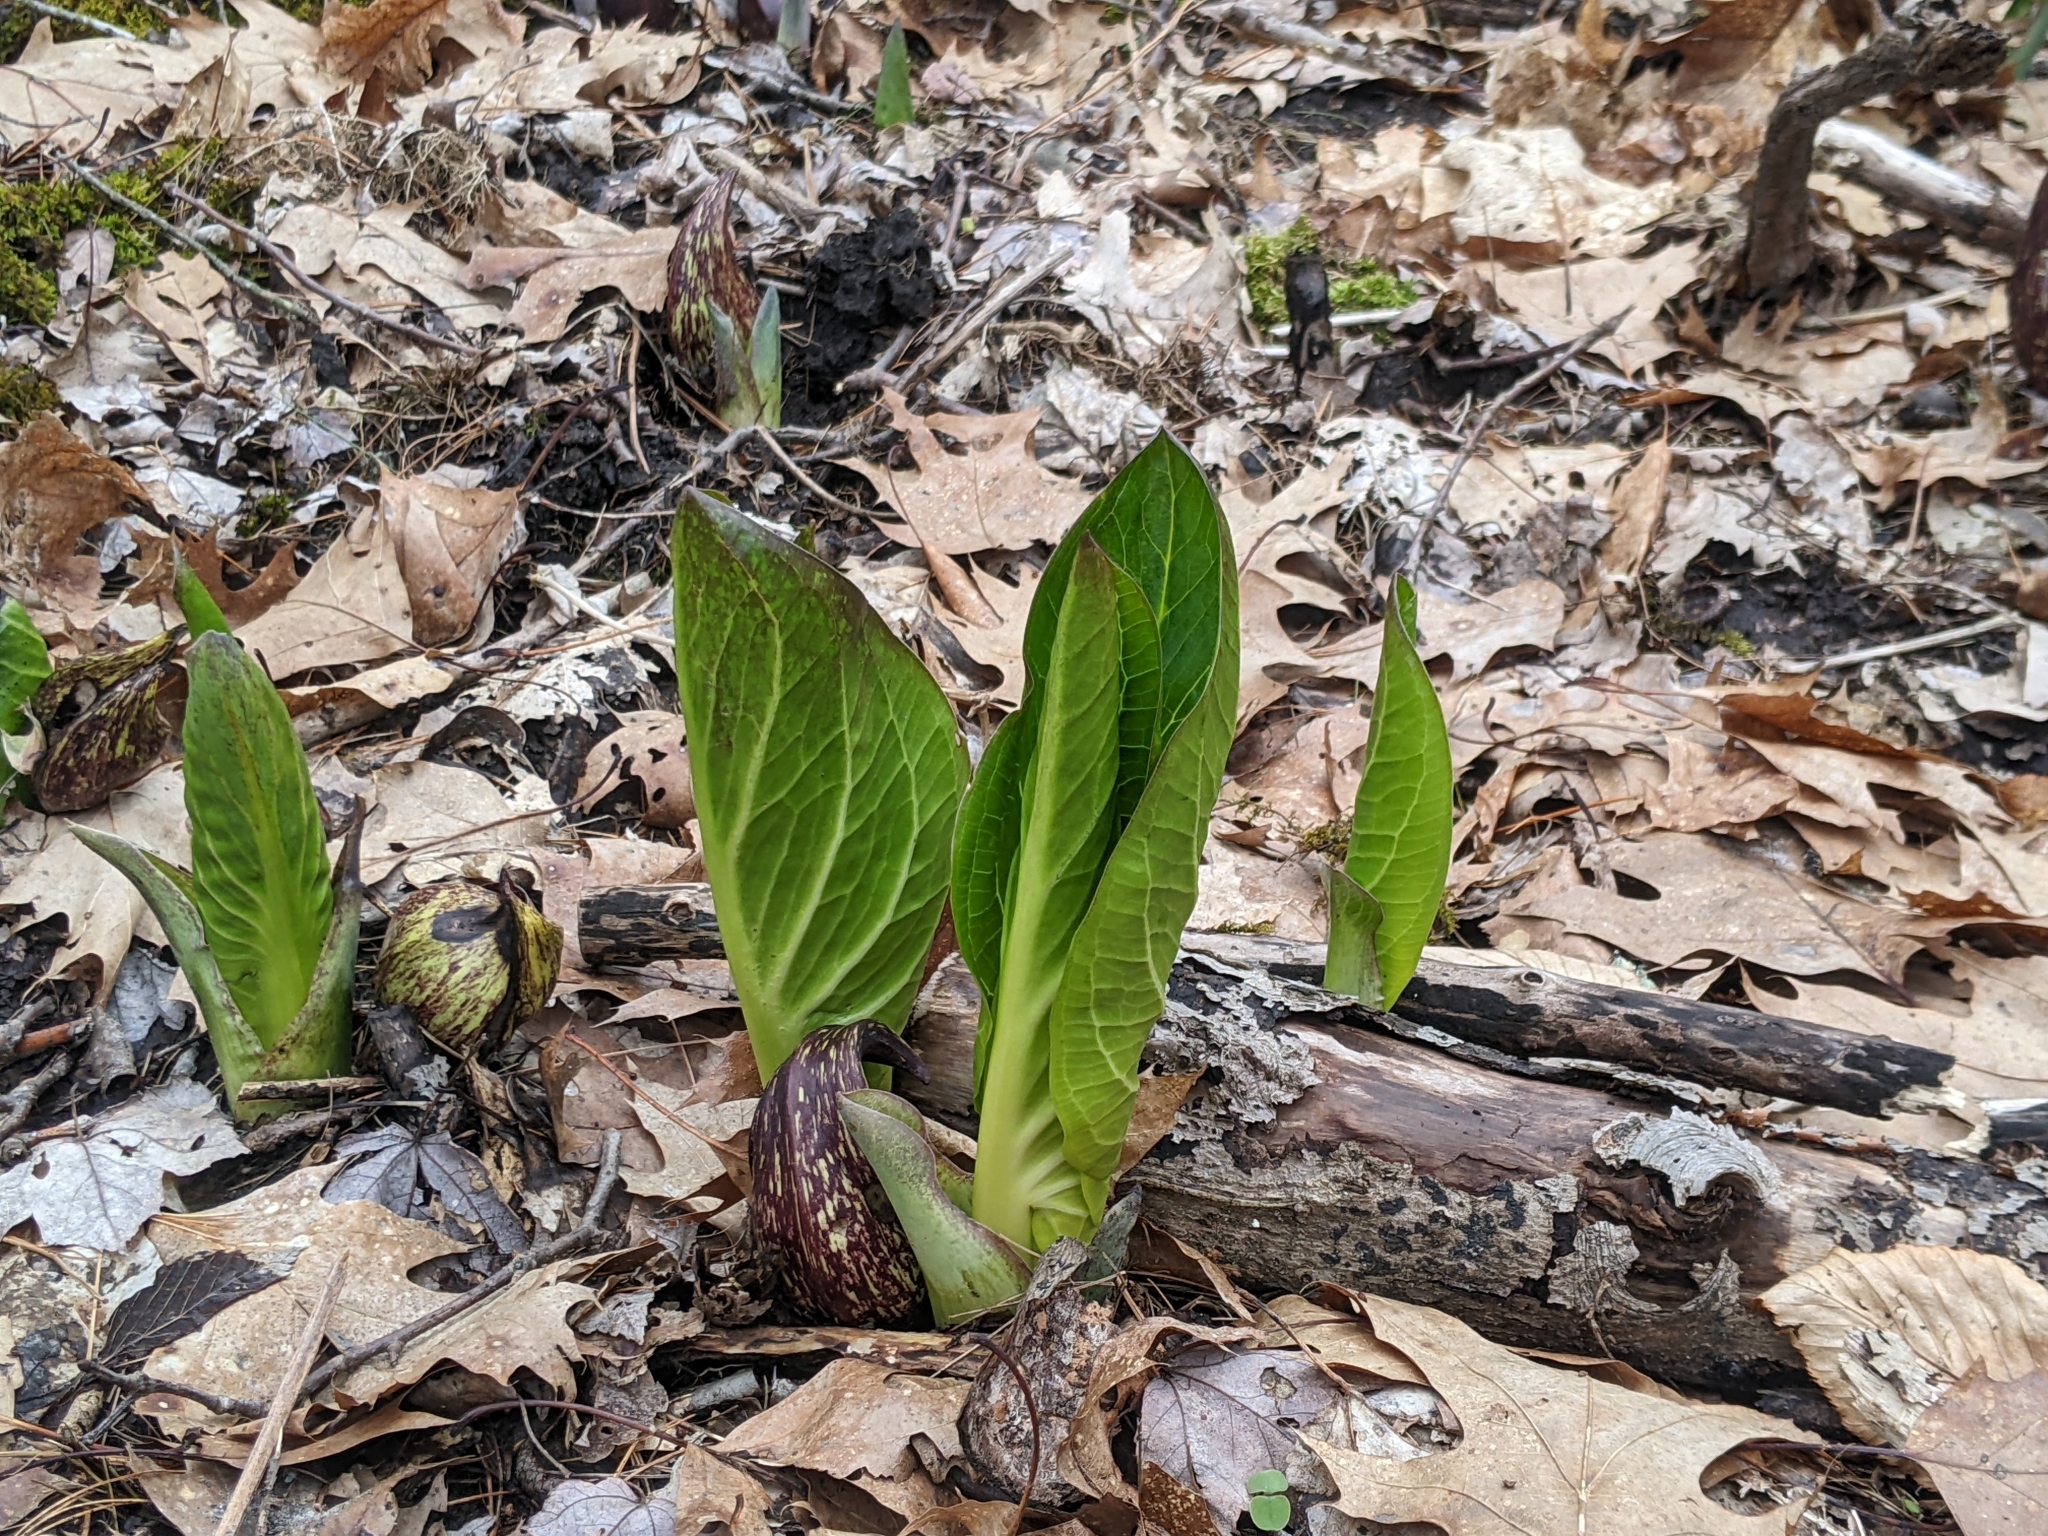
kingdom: Plantae
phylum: Tracheophyta
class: Liliopsida
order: Alismatales
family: Araceae
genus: Symplocarpus
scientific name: Symplocarpus foetidus
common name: Eastern skunk cabbage
